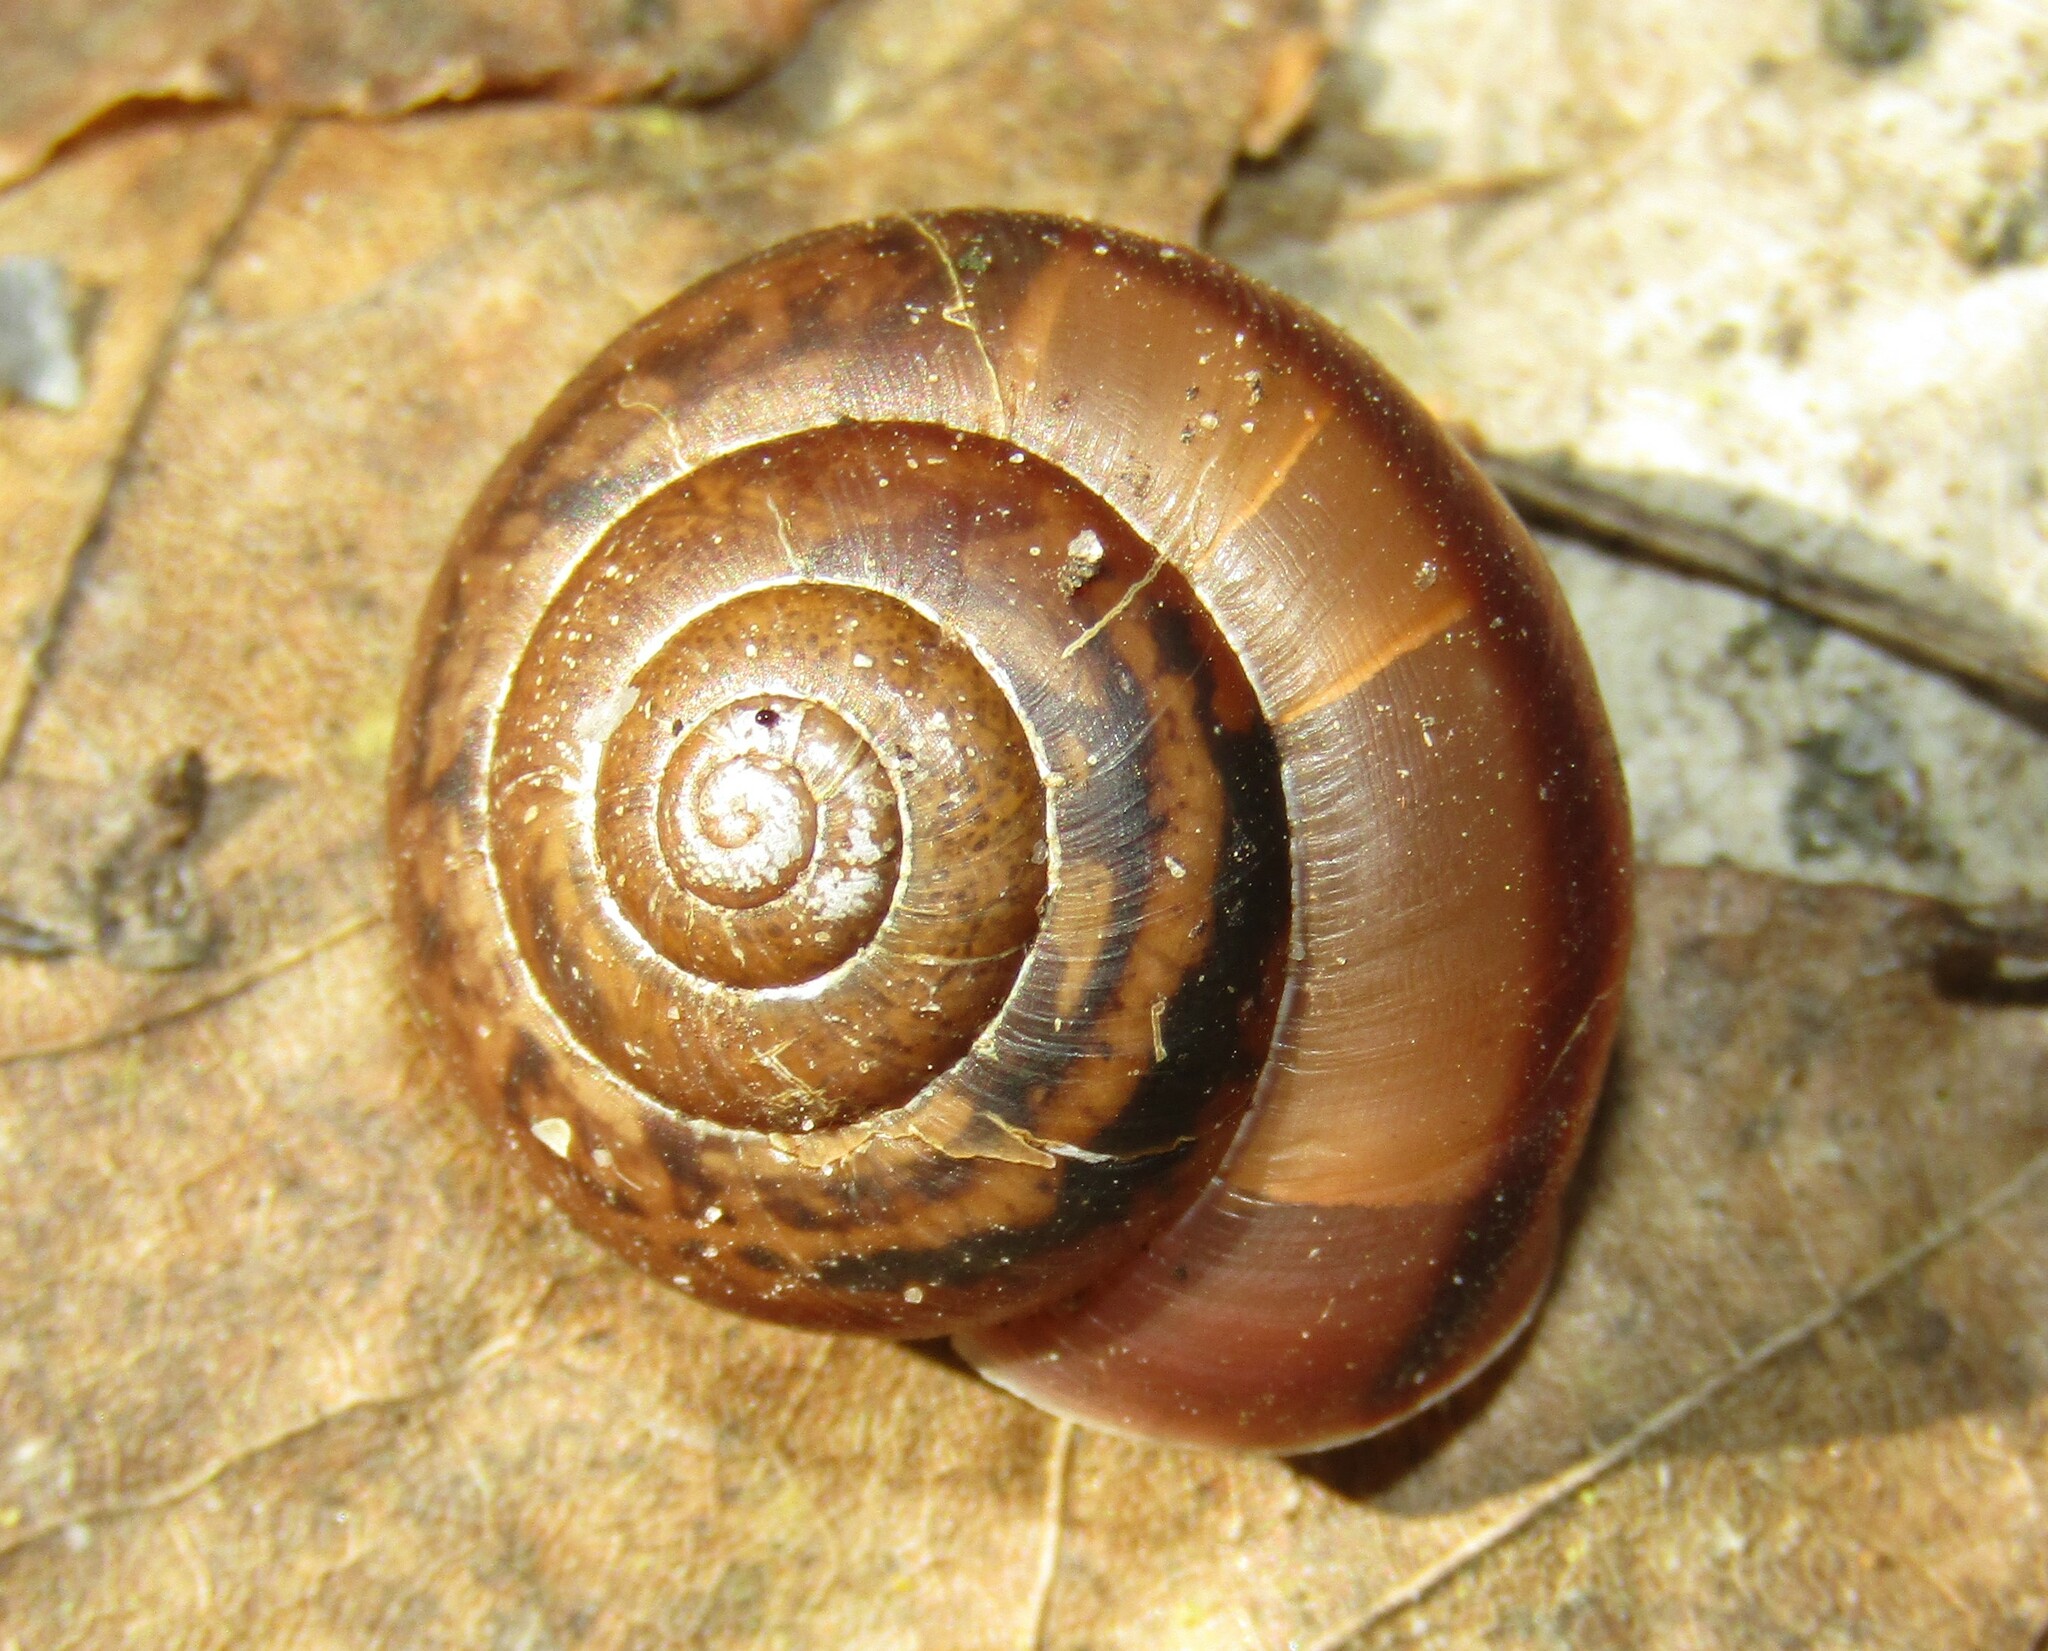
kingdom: Animalia
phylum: Mollusca
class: Gastropoda
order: Stylommatophora
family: Camaenidae
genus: Fruticicola
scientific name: Fruticicola fruticum
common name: Bush snail
